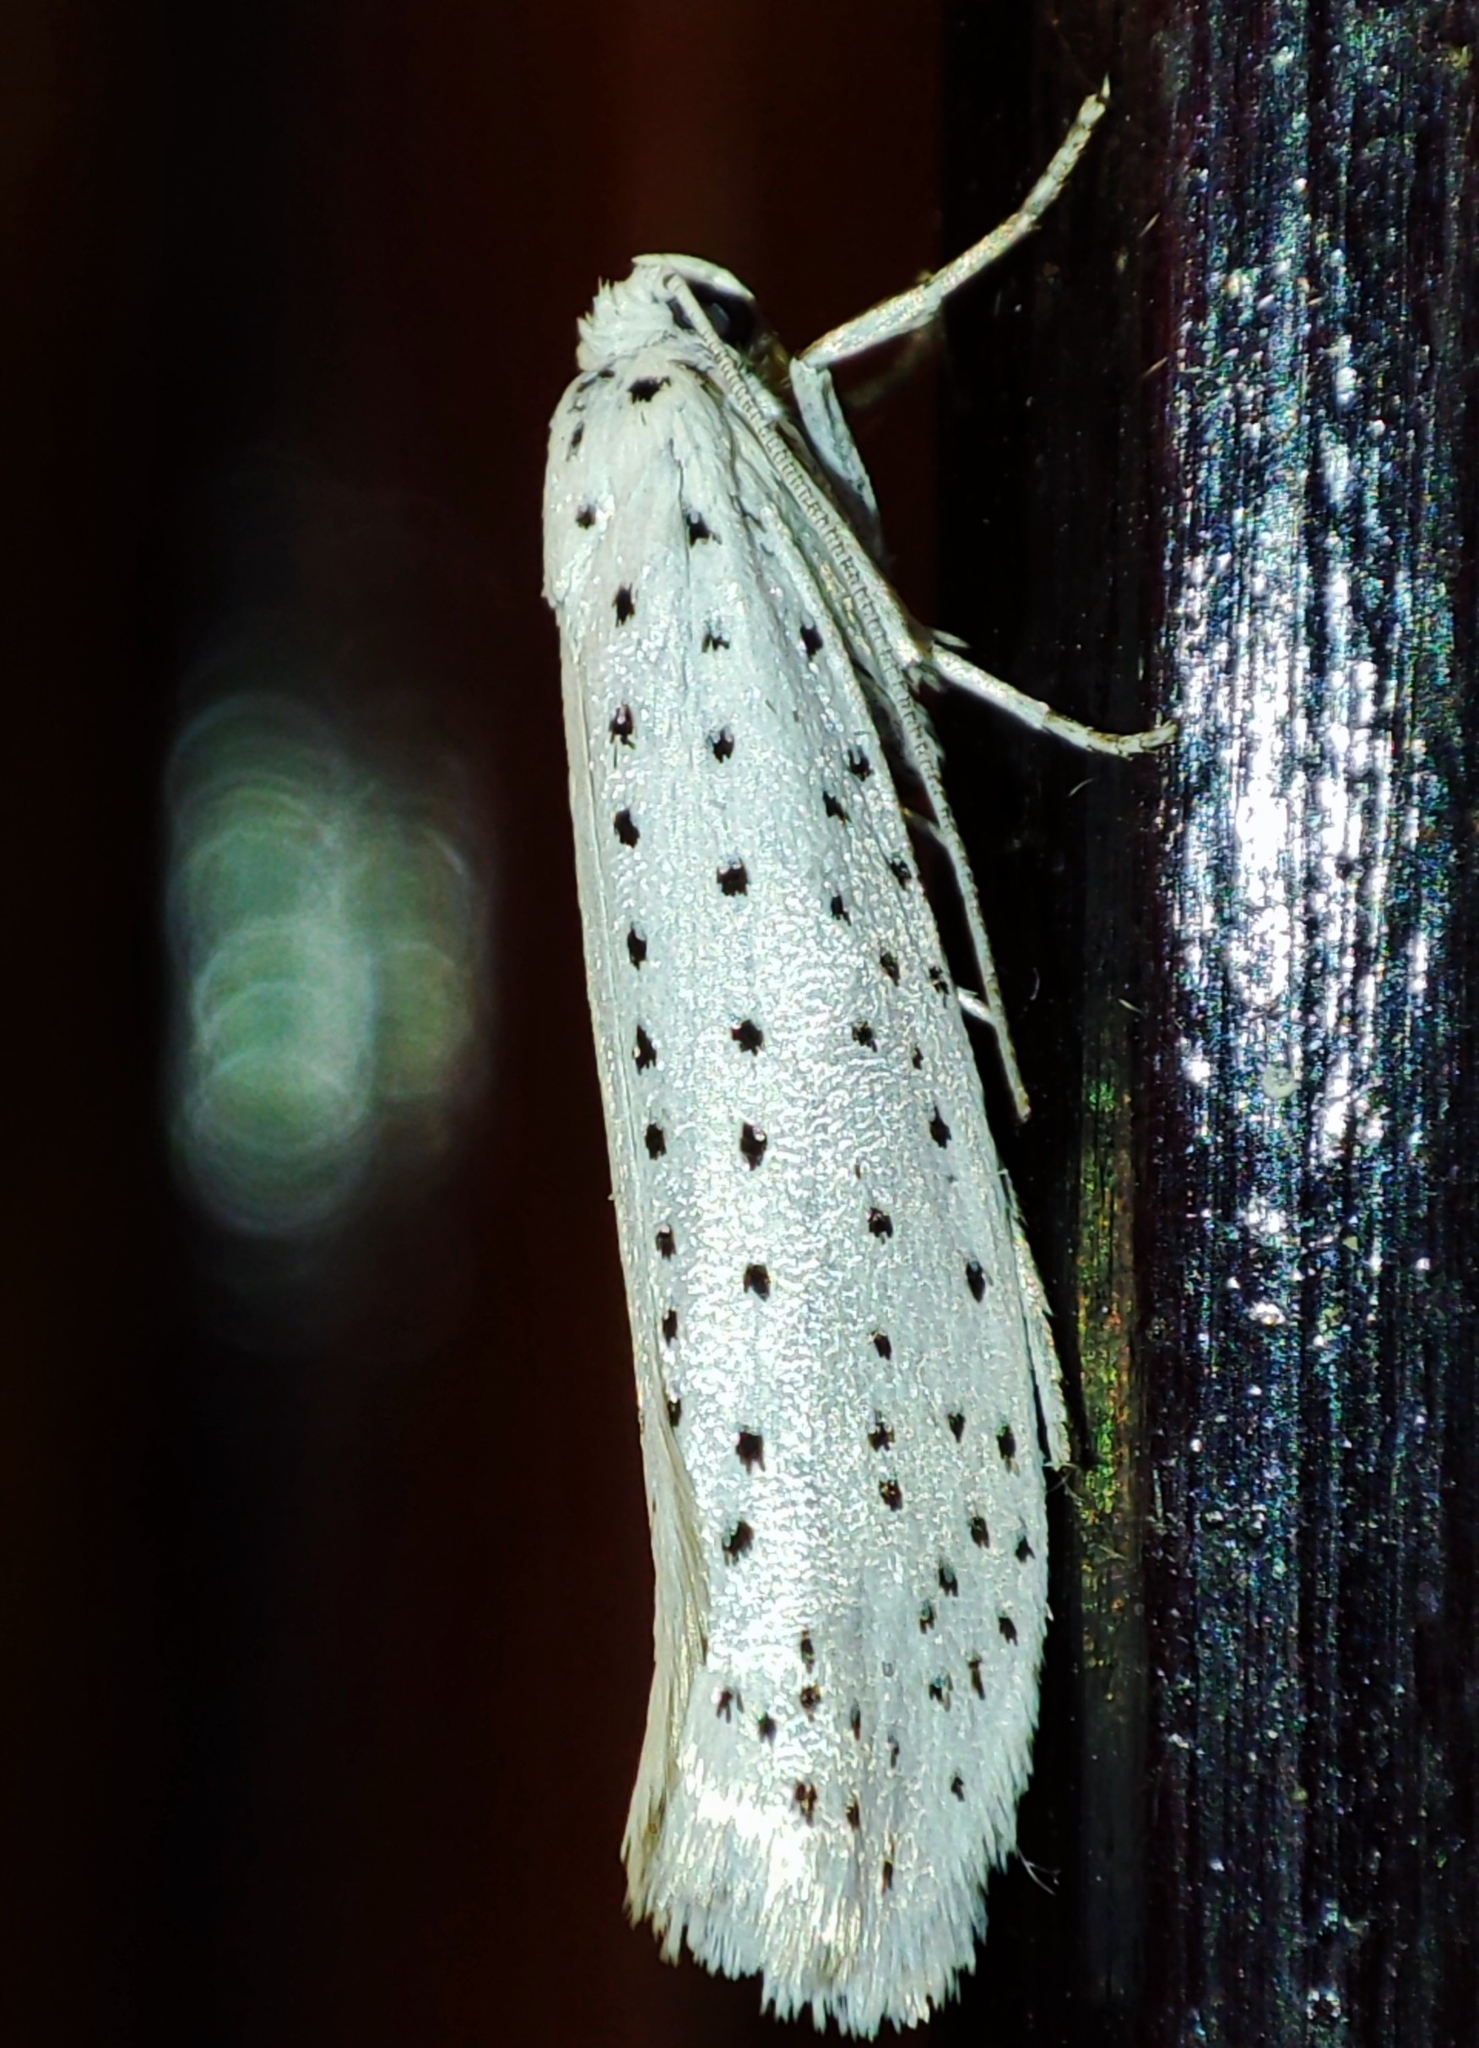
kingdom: Animalia
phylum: Arthropoda
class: Insecta
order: Lepidoptera
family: Yponomeutidae
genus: Yponomeuta
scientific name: Yponomeuta evonymella
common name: Bird-cherry ermine
